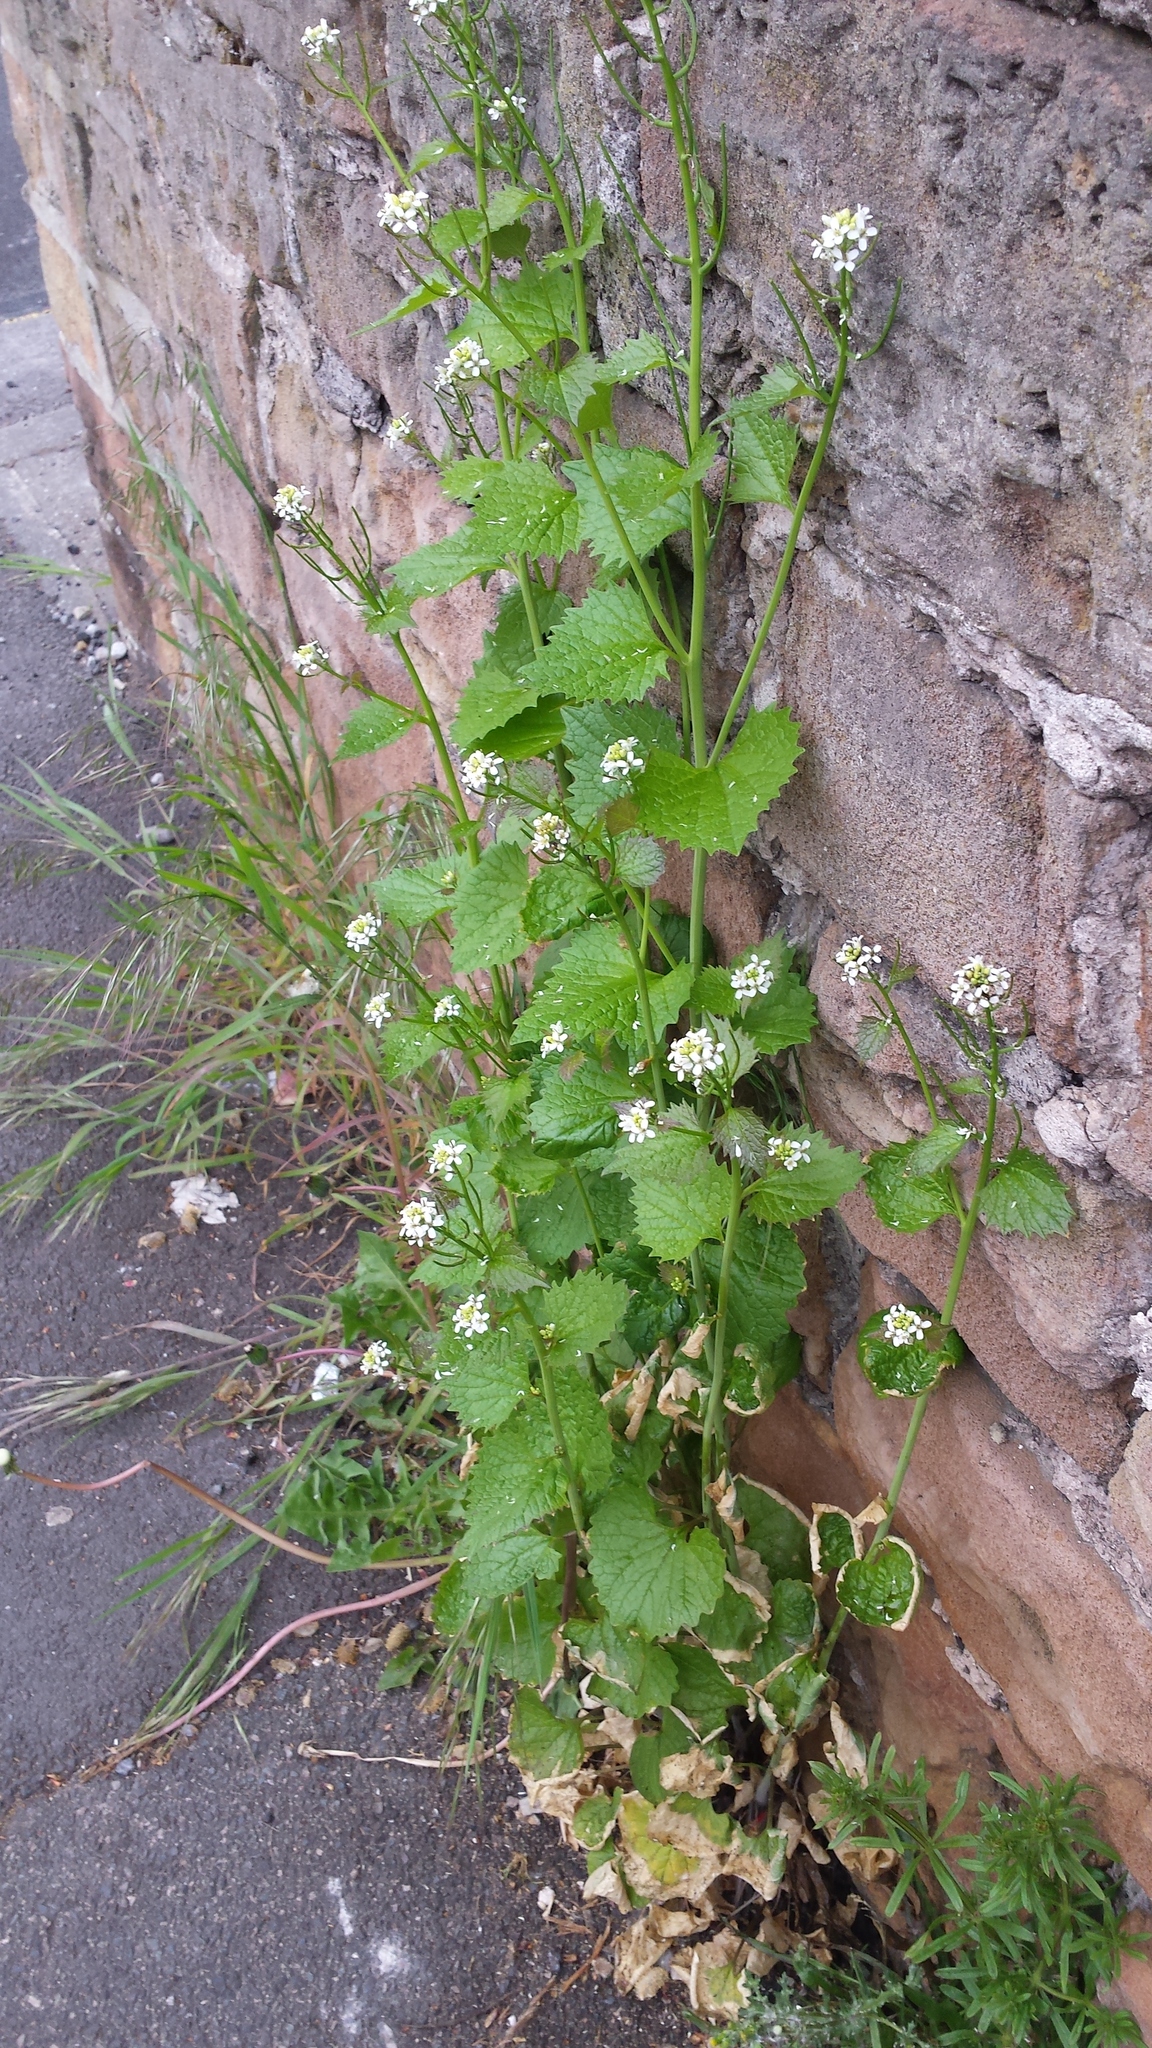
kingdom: Plantae
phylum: Tracheophyta
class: Magnoliopsida
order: Brassicales
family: Brassicaceae
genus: Alliaria
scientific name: Alliaria petiolata
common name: Garlic mustard
